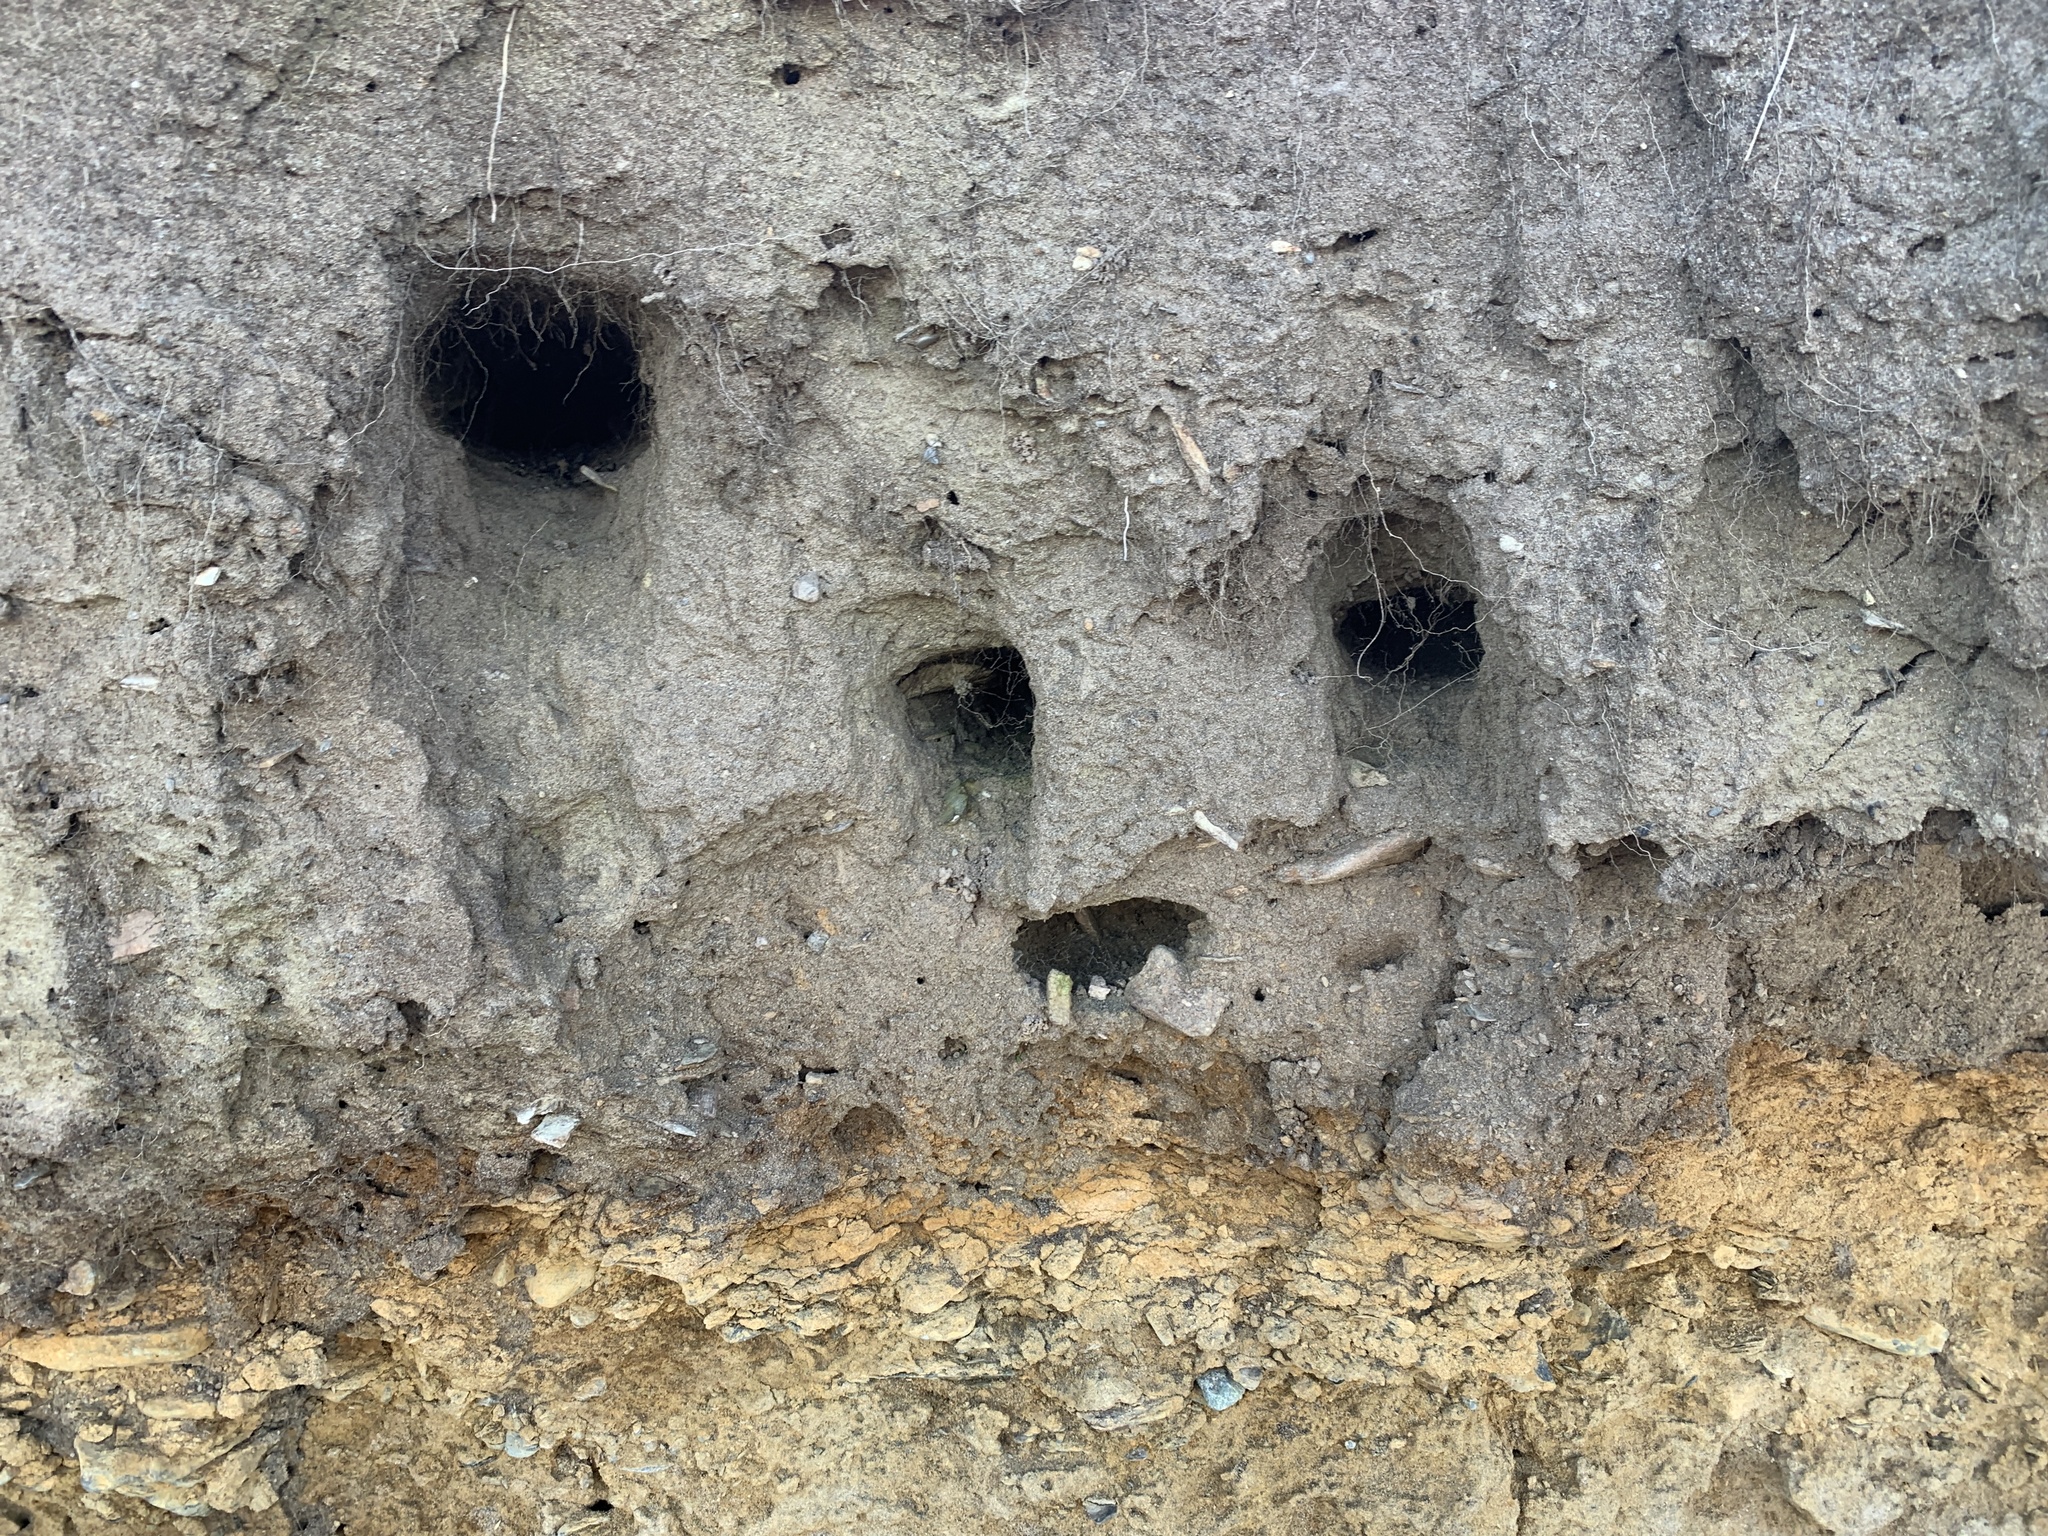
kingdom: Animalia
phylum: Chordata
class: Aves
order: Passeriformes
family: Hirundinidae
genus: Riparia
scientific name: Riparia riparia
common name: Sand martin
